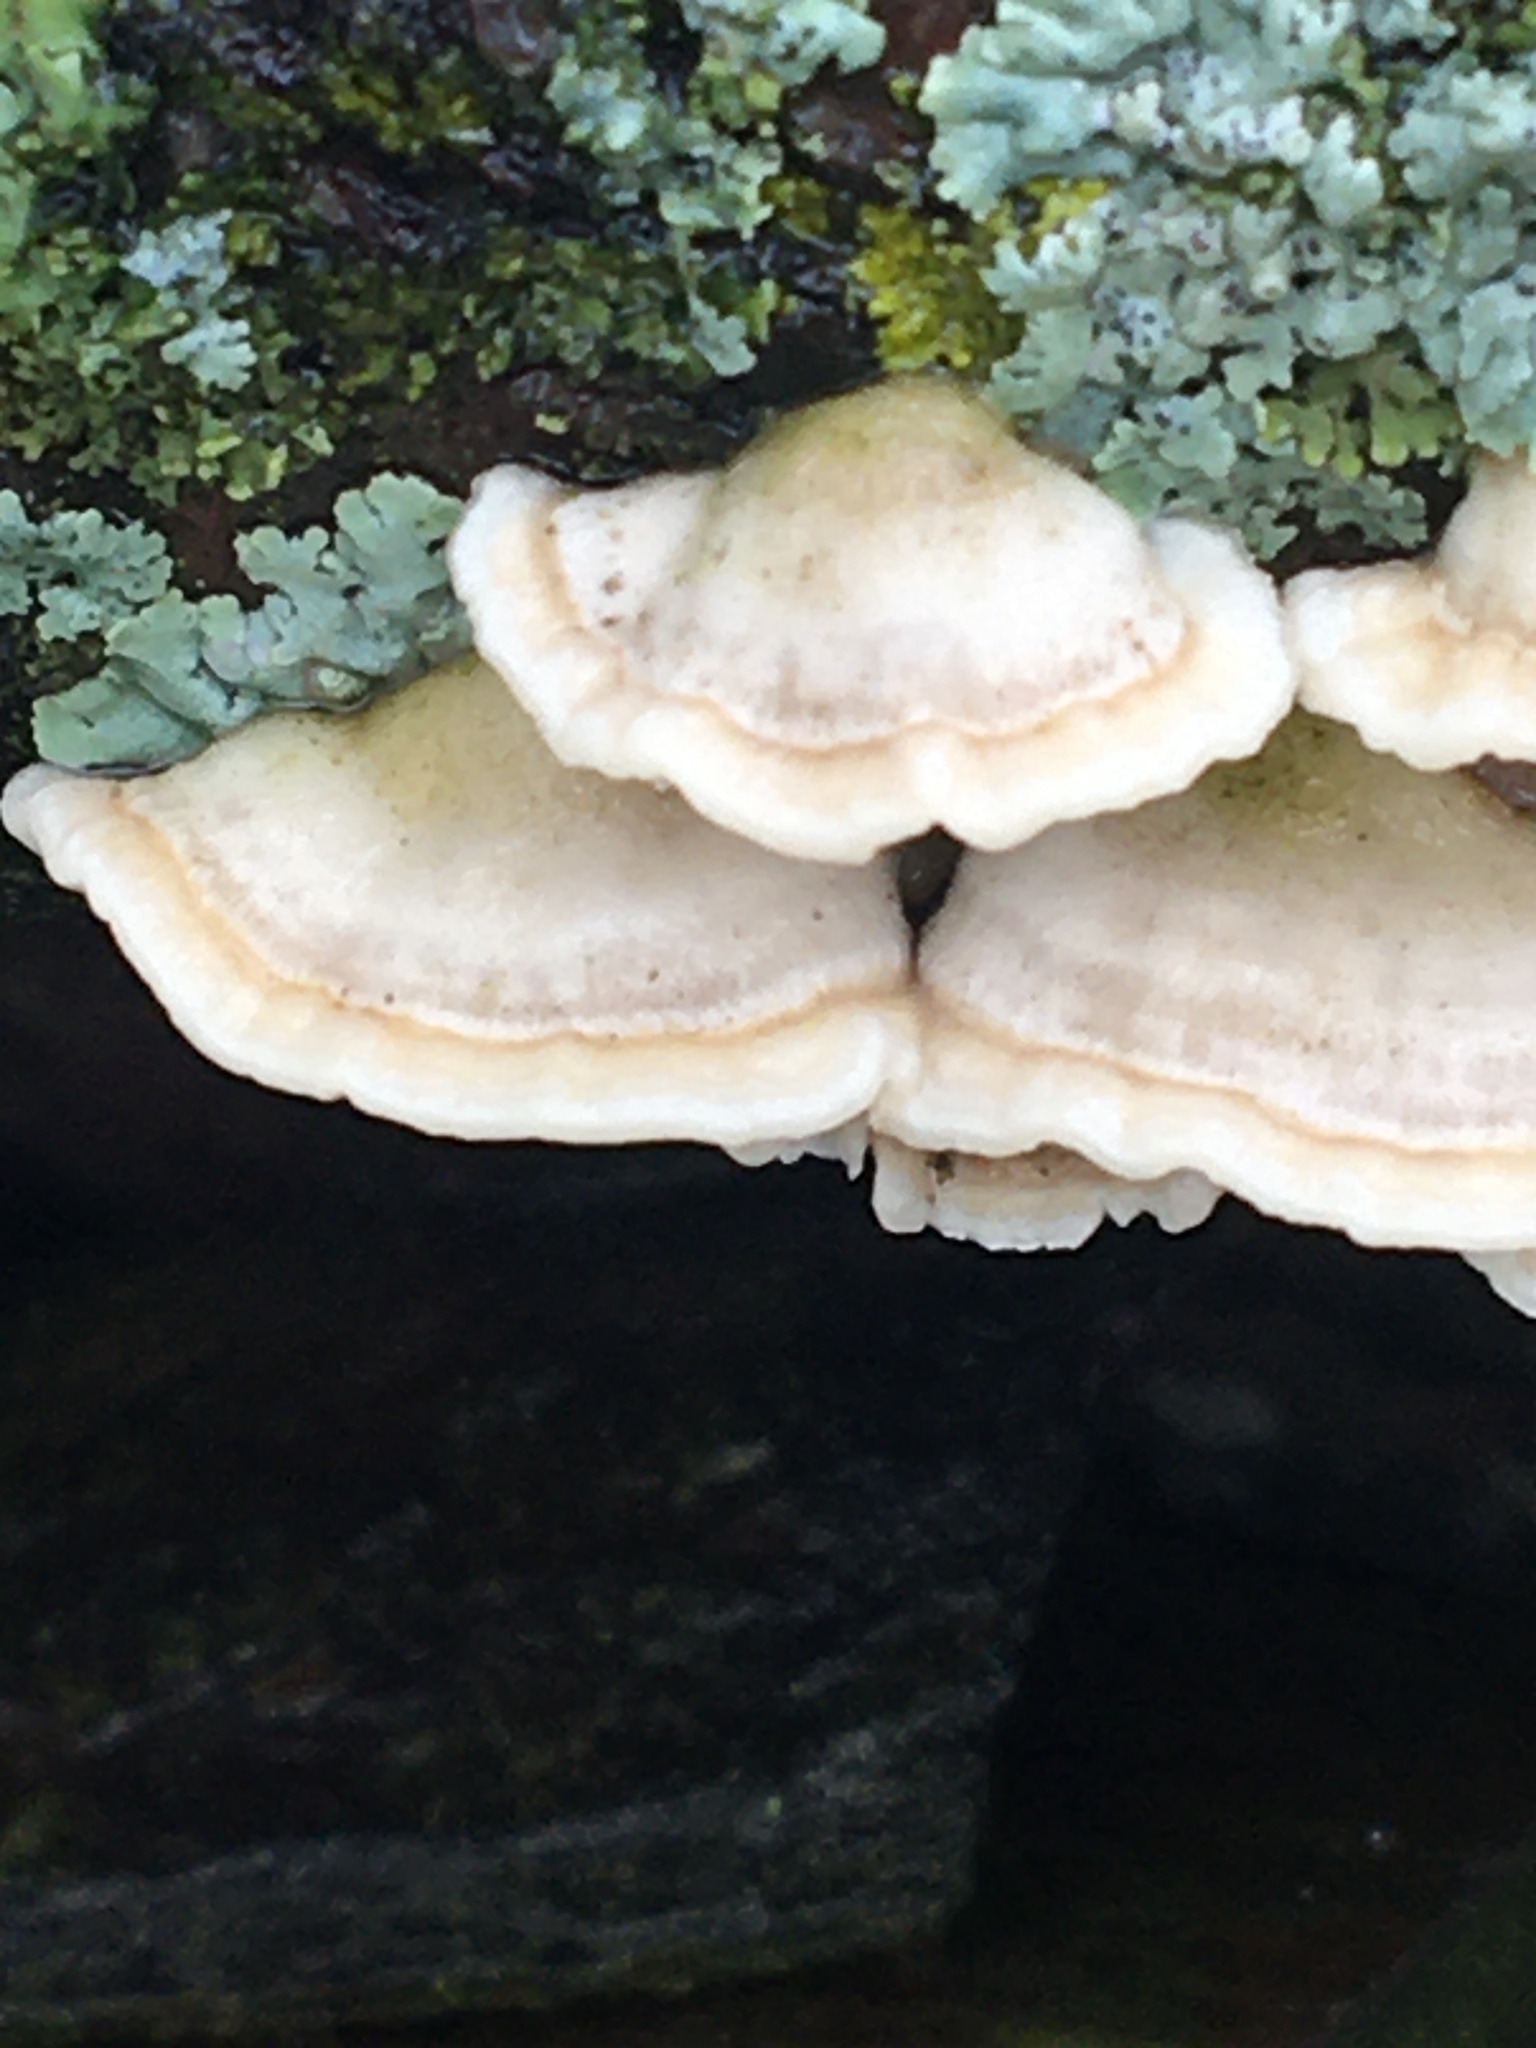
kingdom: Fungi
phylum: Basidiomycota
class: Agaricomycetes
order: Polyporales
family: Cerrenaceae
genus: Cerrena
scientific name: Cerrena unicolor
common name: Mossy maze polypore
